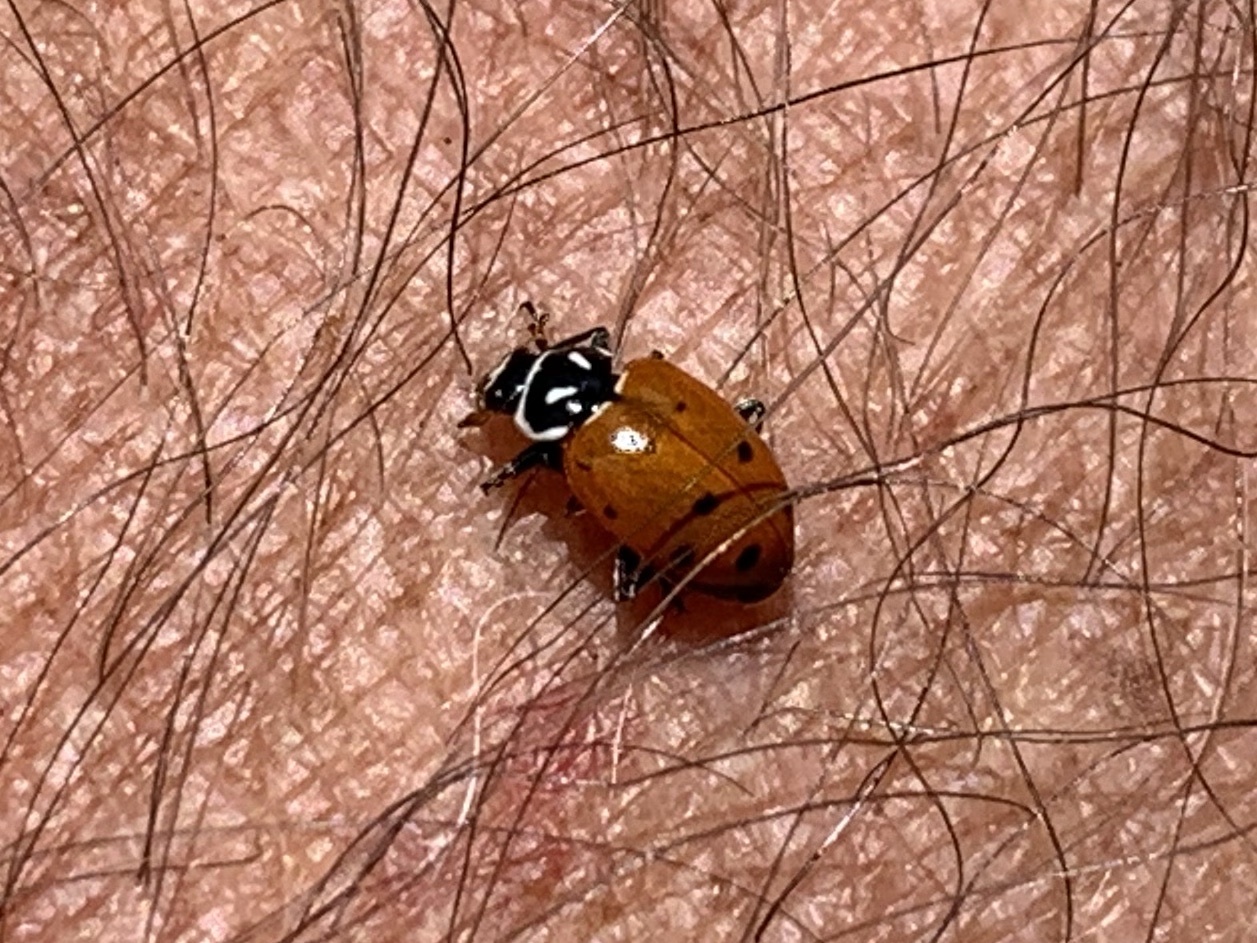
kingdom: Animalia
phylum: Arthropoda
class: Insecta
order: Coleoptera
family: Coccinellidae
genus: Hippodamia
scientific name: Hippodamia convergens
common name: Convergent lady beetle
